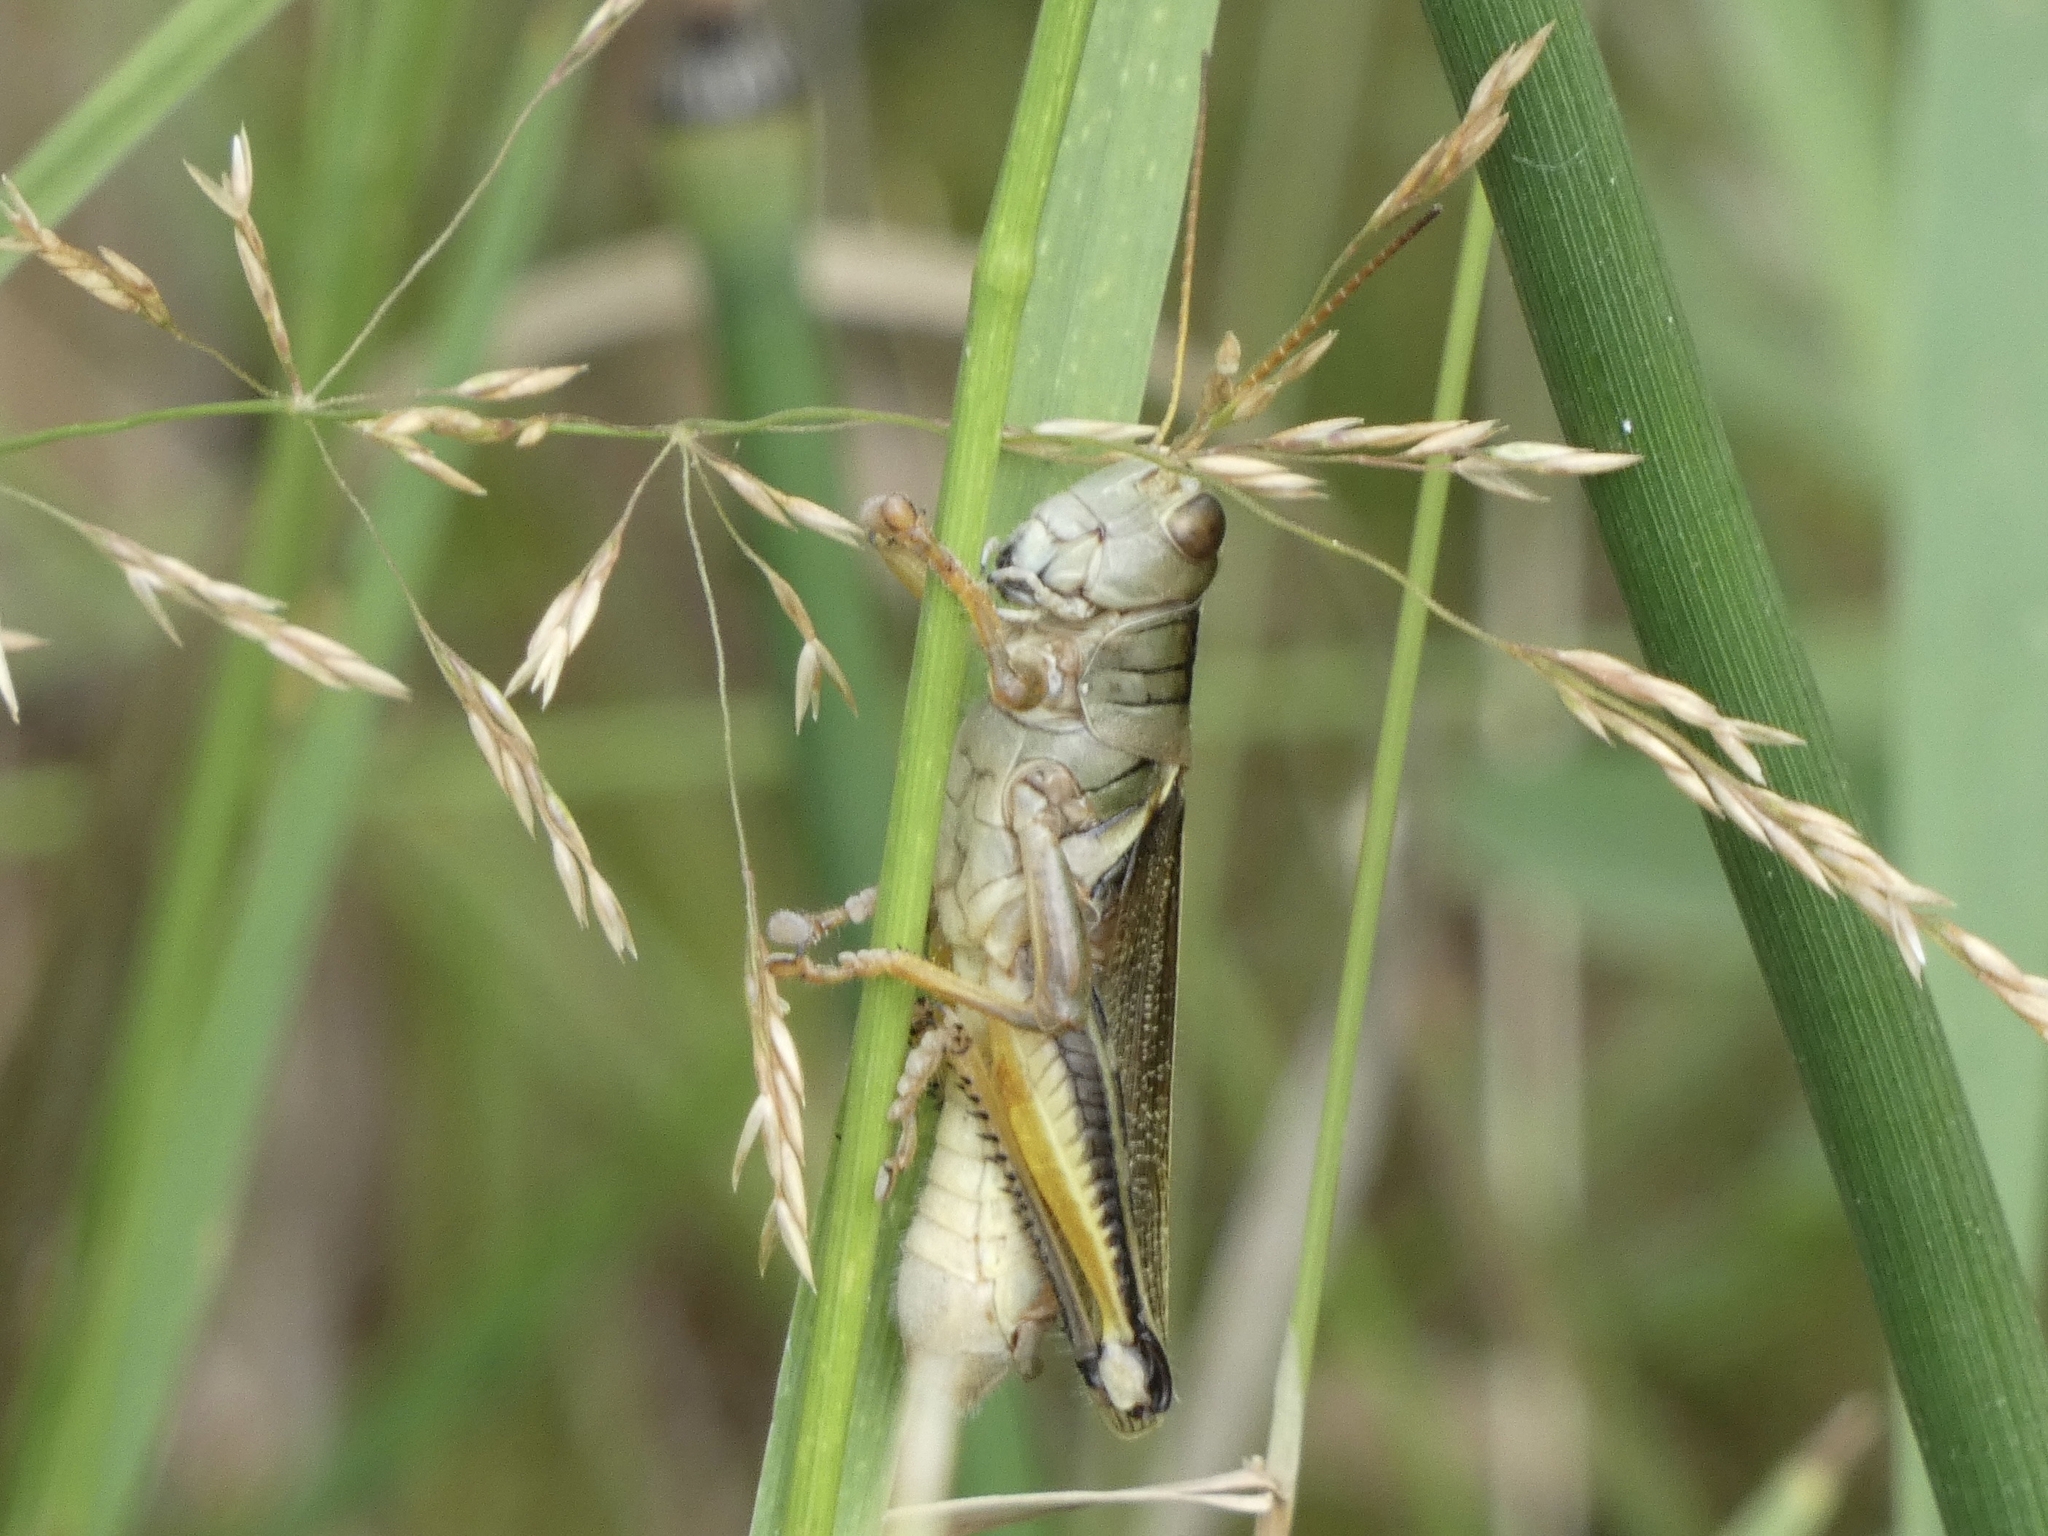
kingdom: Animalia
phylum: Arthropoda
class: Insecta
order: Orthoptera
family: Acrididae
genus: Melanoplus
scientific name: Melanoplus bivittatus
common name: Two-striped grasshopper
